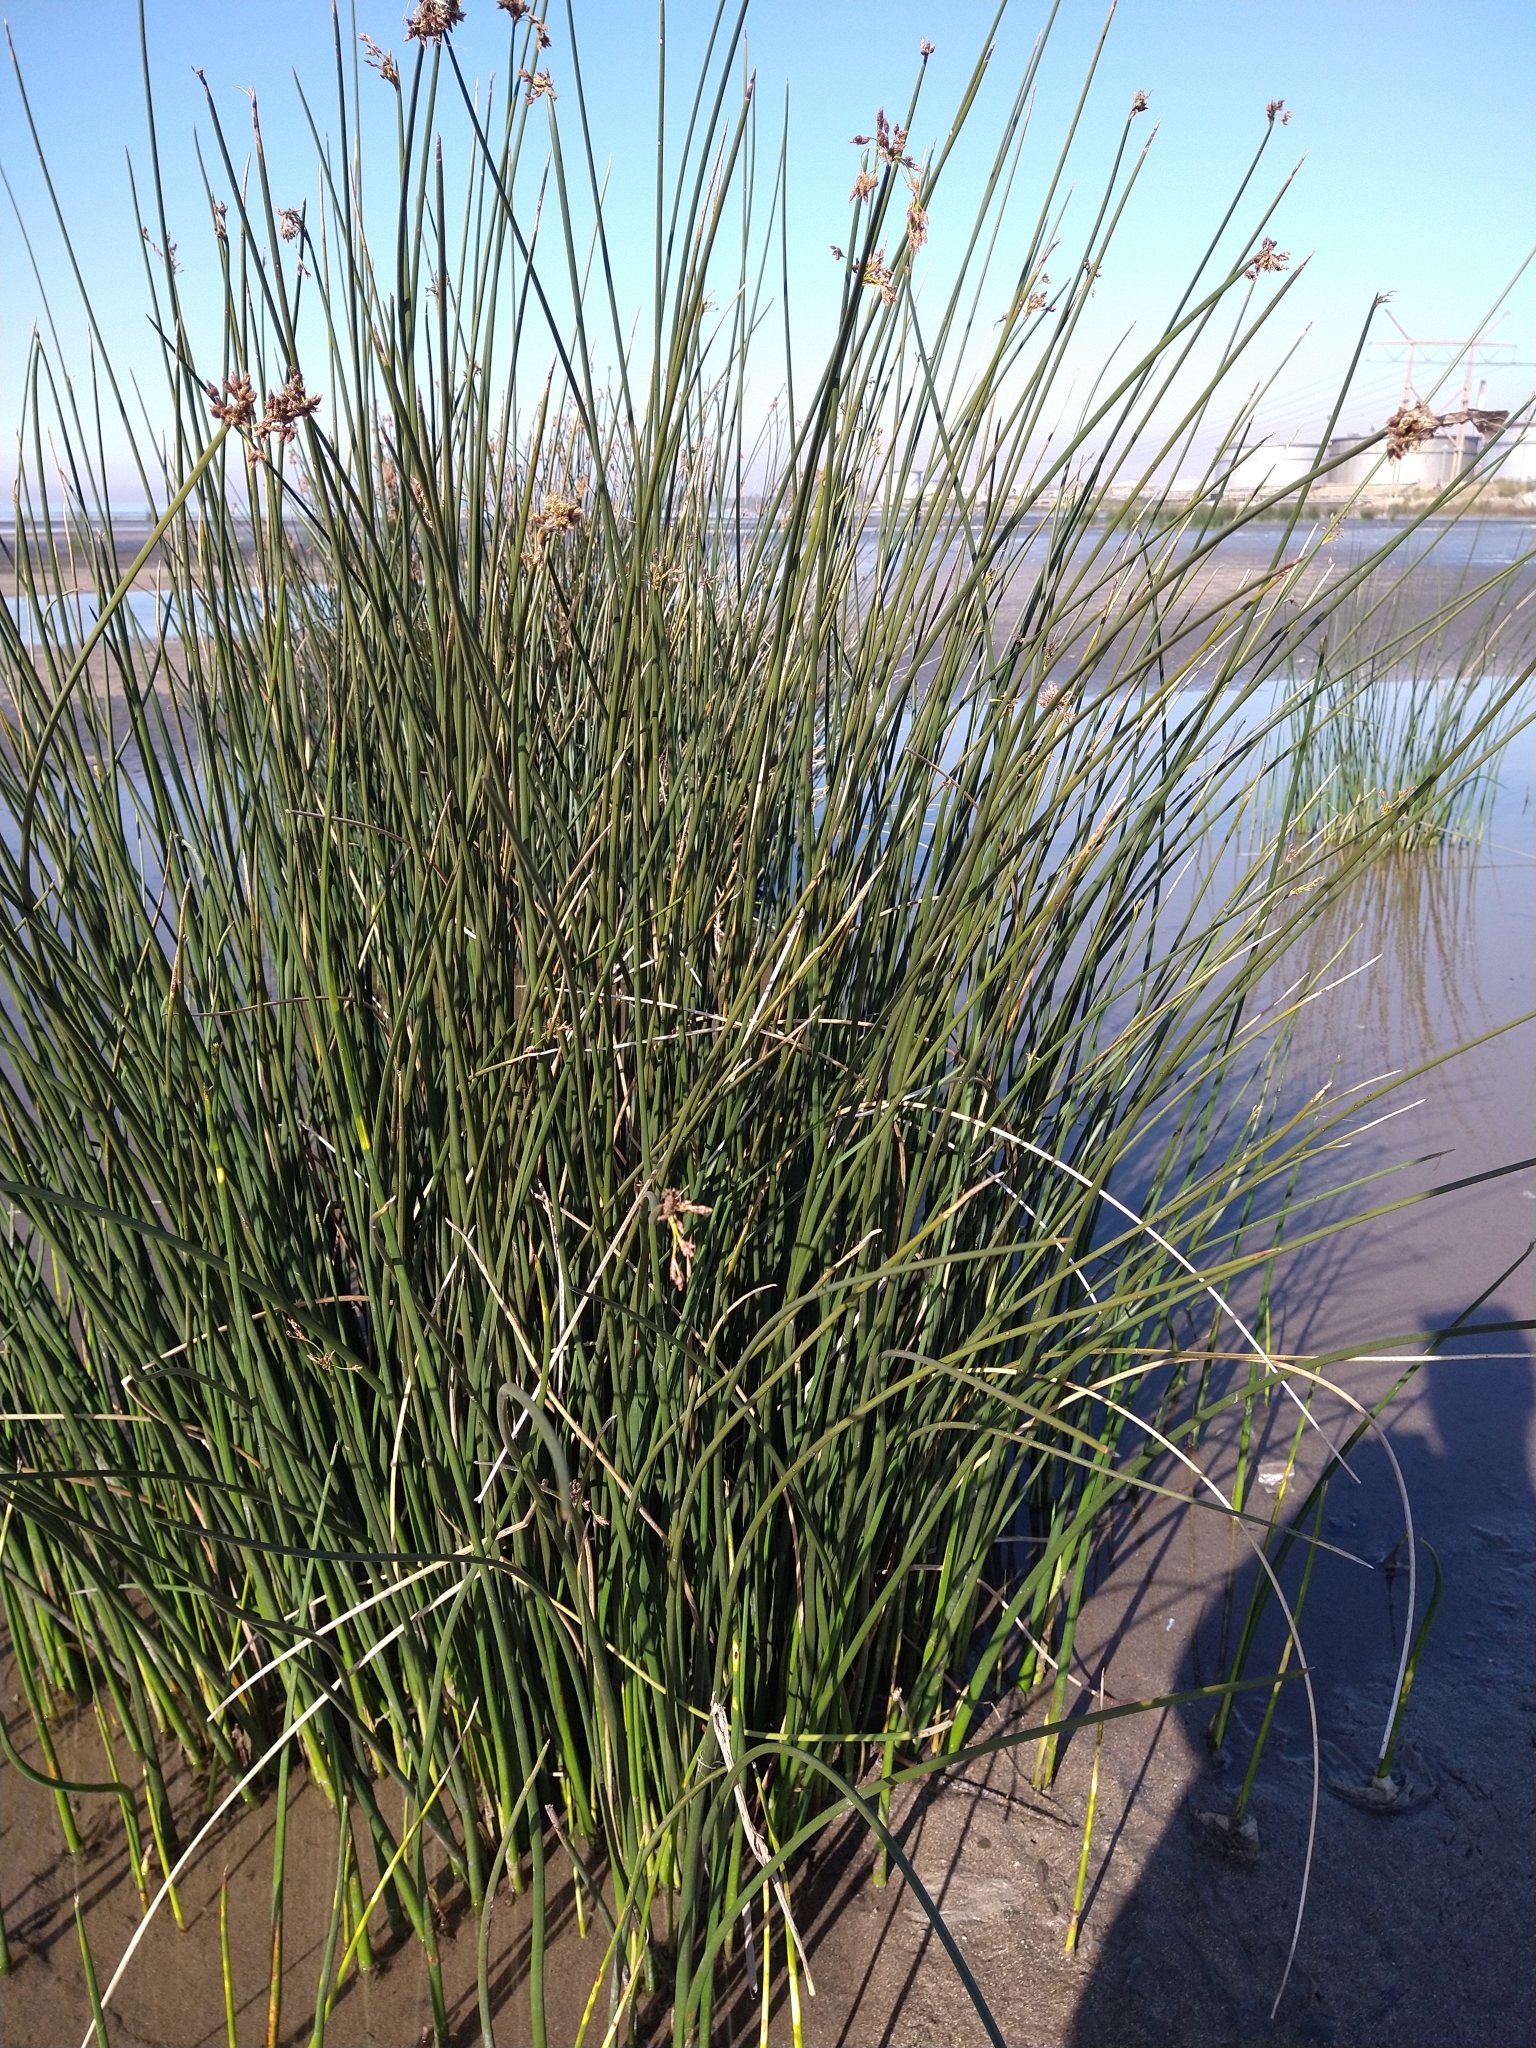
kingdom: Plantae
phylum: Tracheophyta
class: Liliopsida
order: Poales
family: Cyperaceae
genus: Schoenoplectus
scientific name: Schoenoplectus californicus
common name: California bulrush
